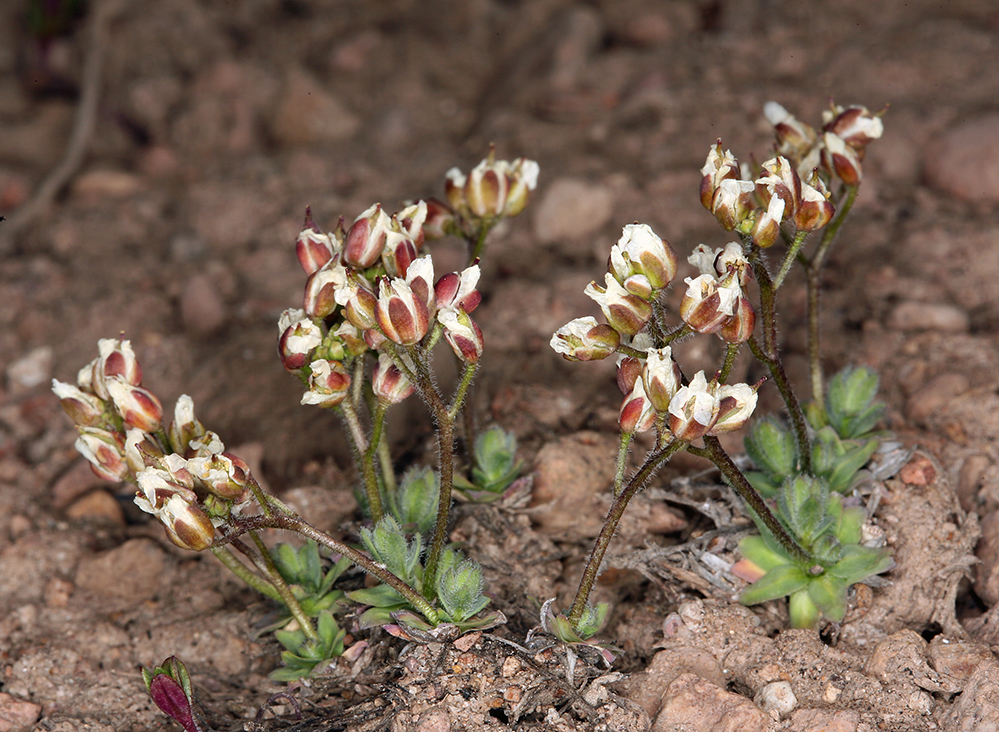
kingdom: Plantae
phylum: Tracheophyta
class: Magnoliopsida
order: Brassicales
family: Brassicaceae
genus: Cusickiella
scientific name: Cusickiella douglasii
